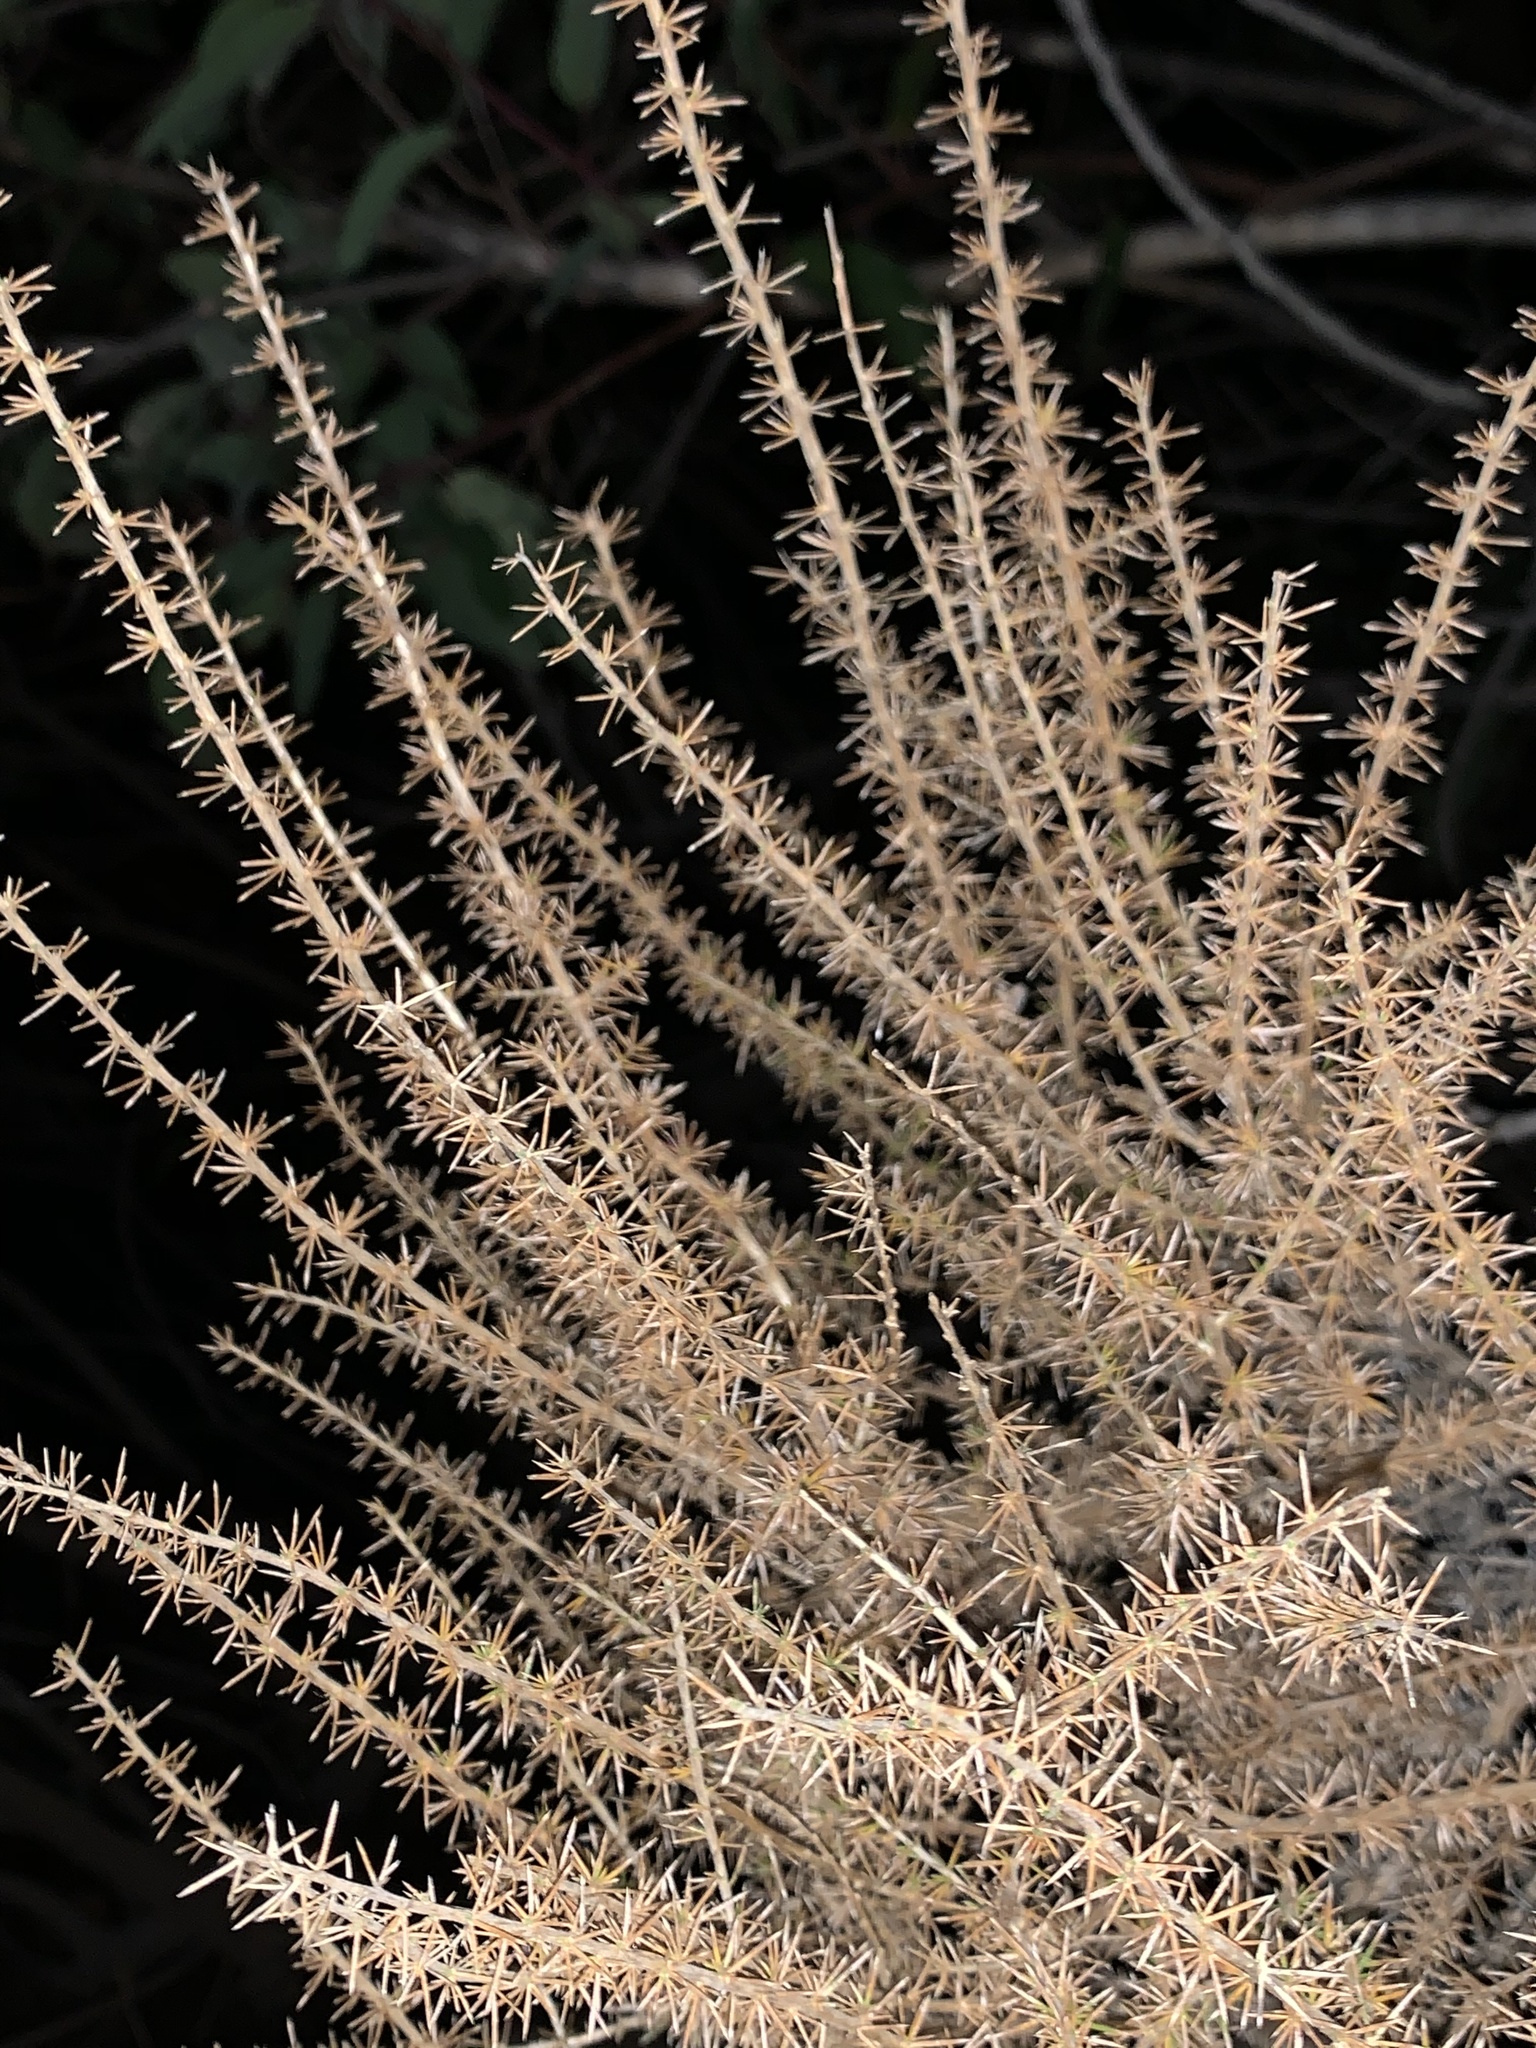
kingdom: Plantae
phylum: Tracheophyta
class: Magnoliopsida
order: Ericales
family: Polemoniaceae
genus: Linanthus
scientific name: Linanthus californicus
